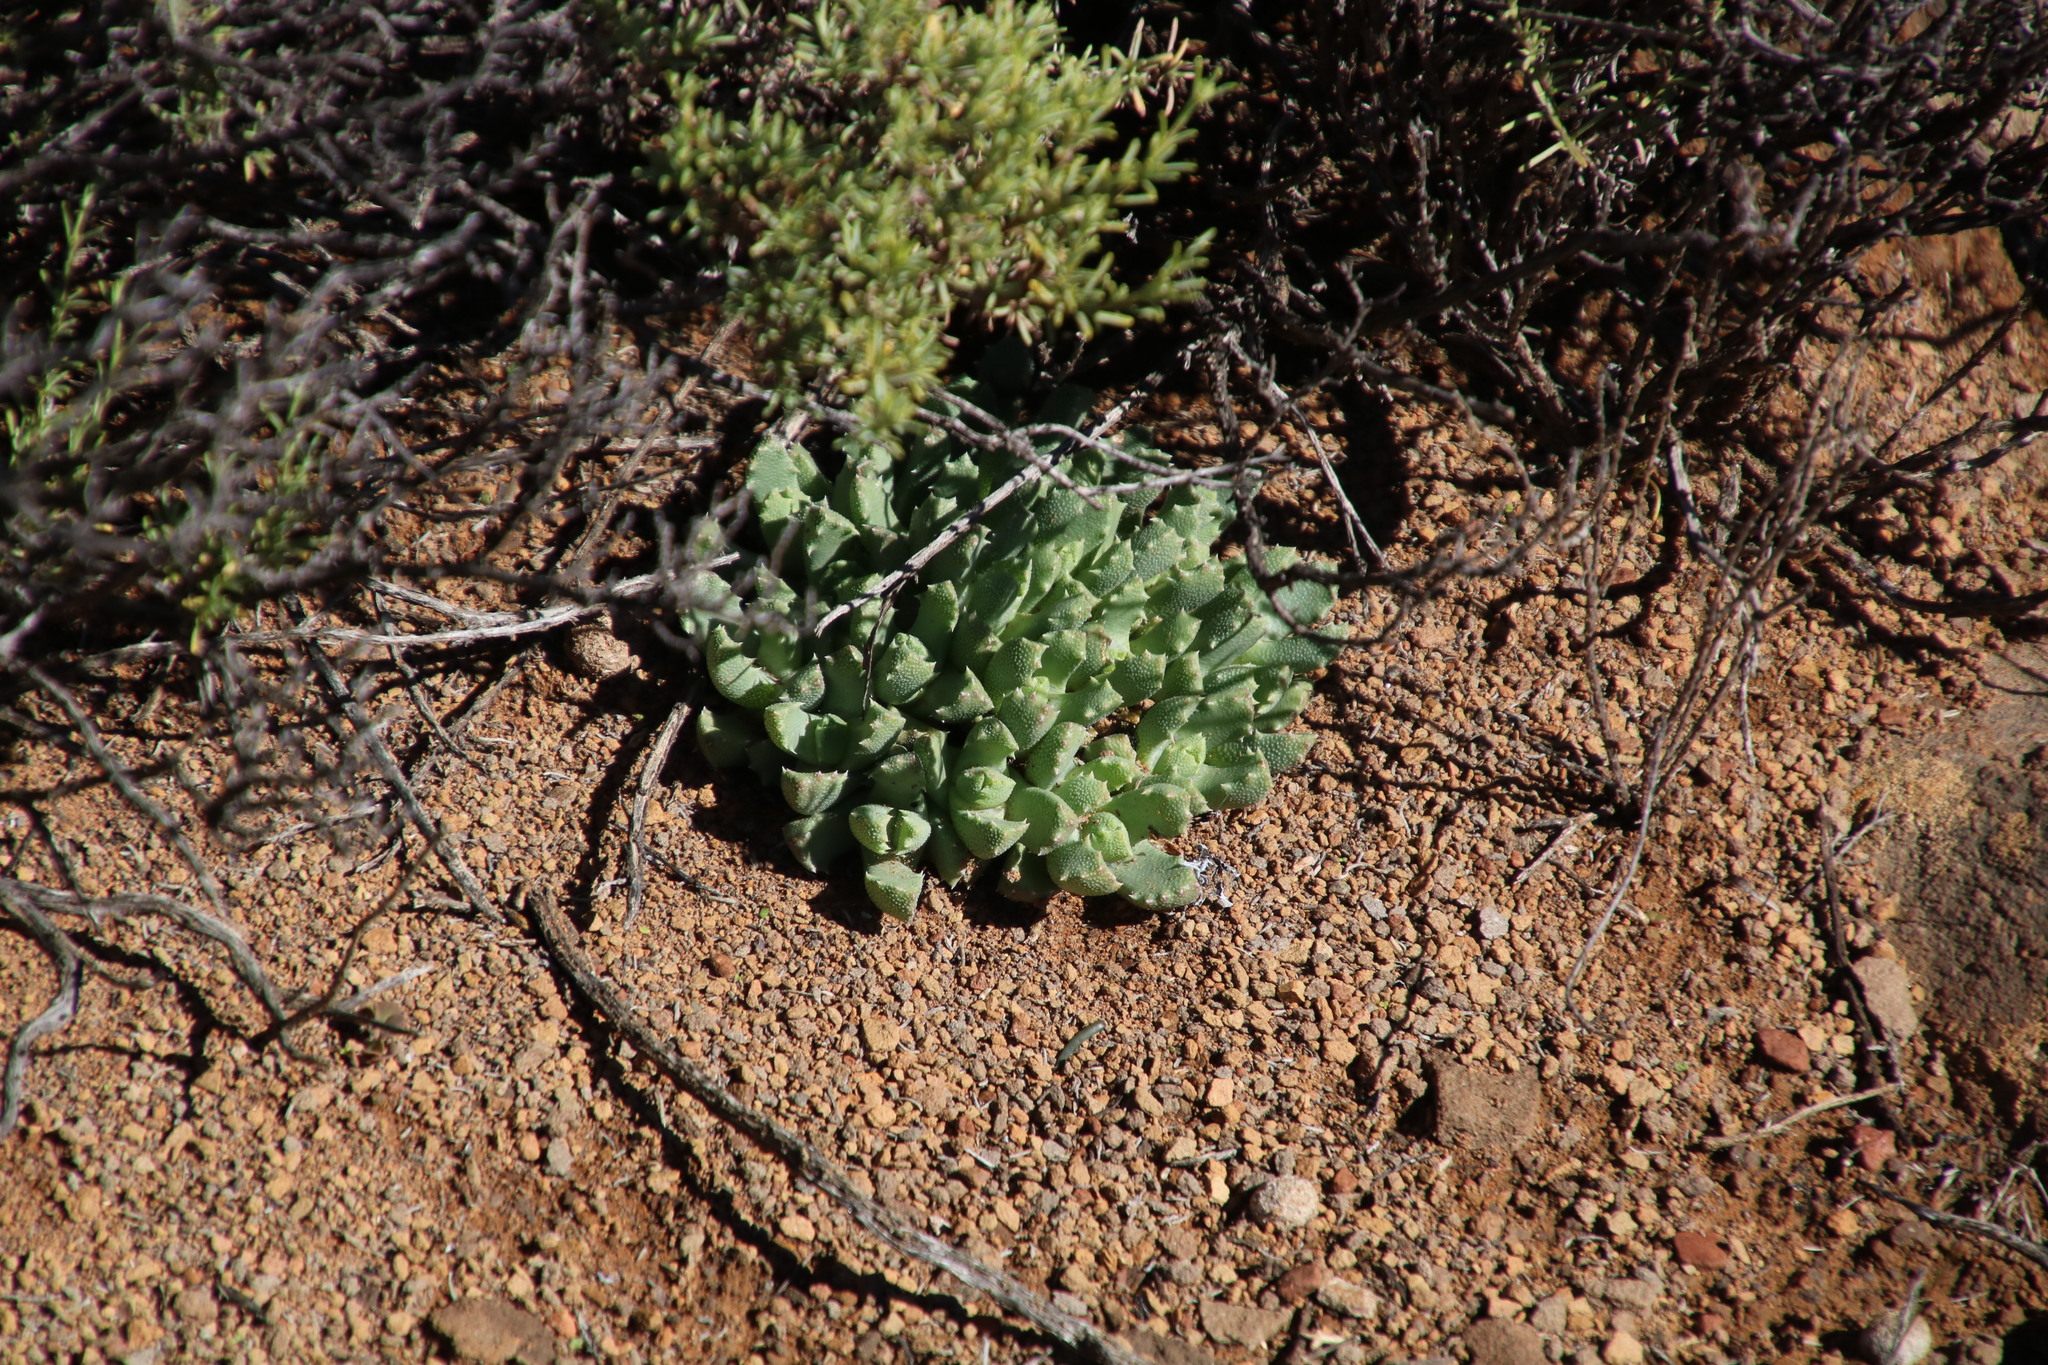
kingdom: Plantae
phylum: Tracheophyta
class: Magnoliopsida
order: Caryophyllales
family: Aizoaceae
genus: Stomatium
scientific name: Stomatium viride
